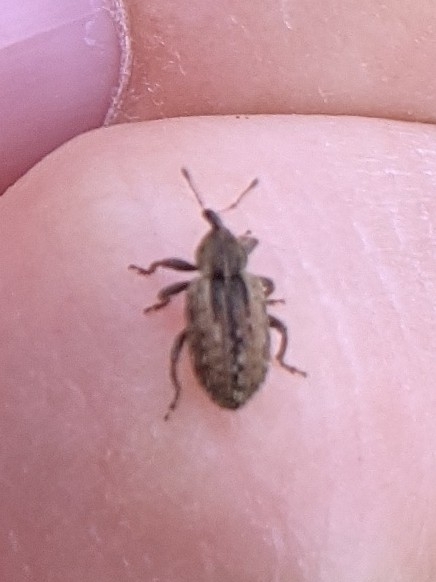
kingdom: Animalia
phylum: Arthropoda
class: Insecta
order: Coleoptera
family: Curculionidae
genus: Hypera
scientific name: Hypera postica
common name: Weevil
